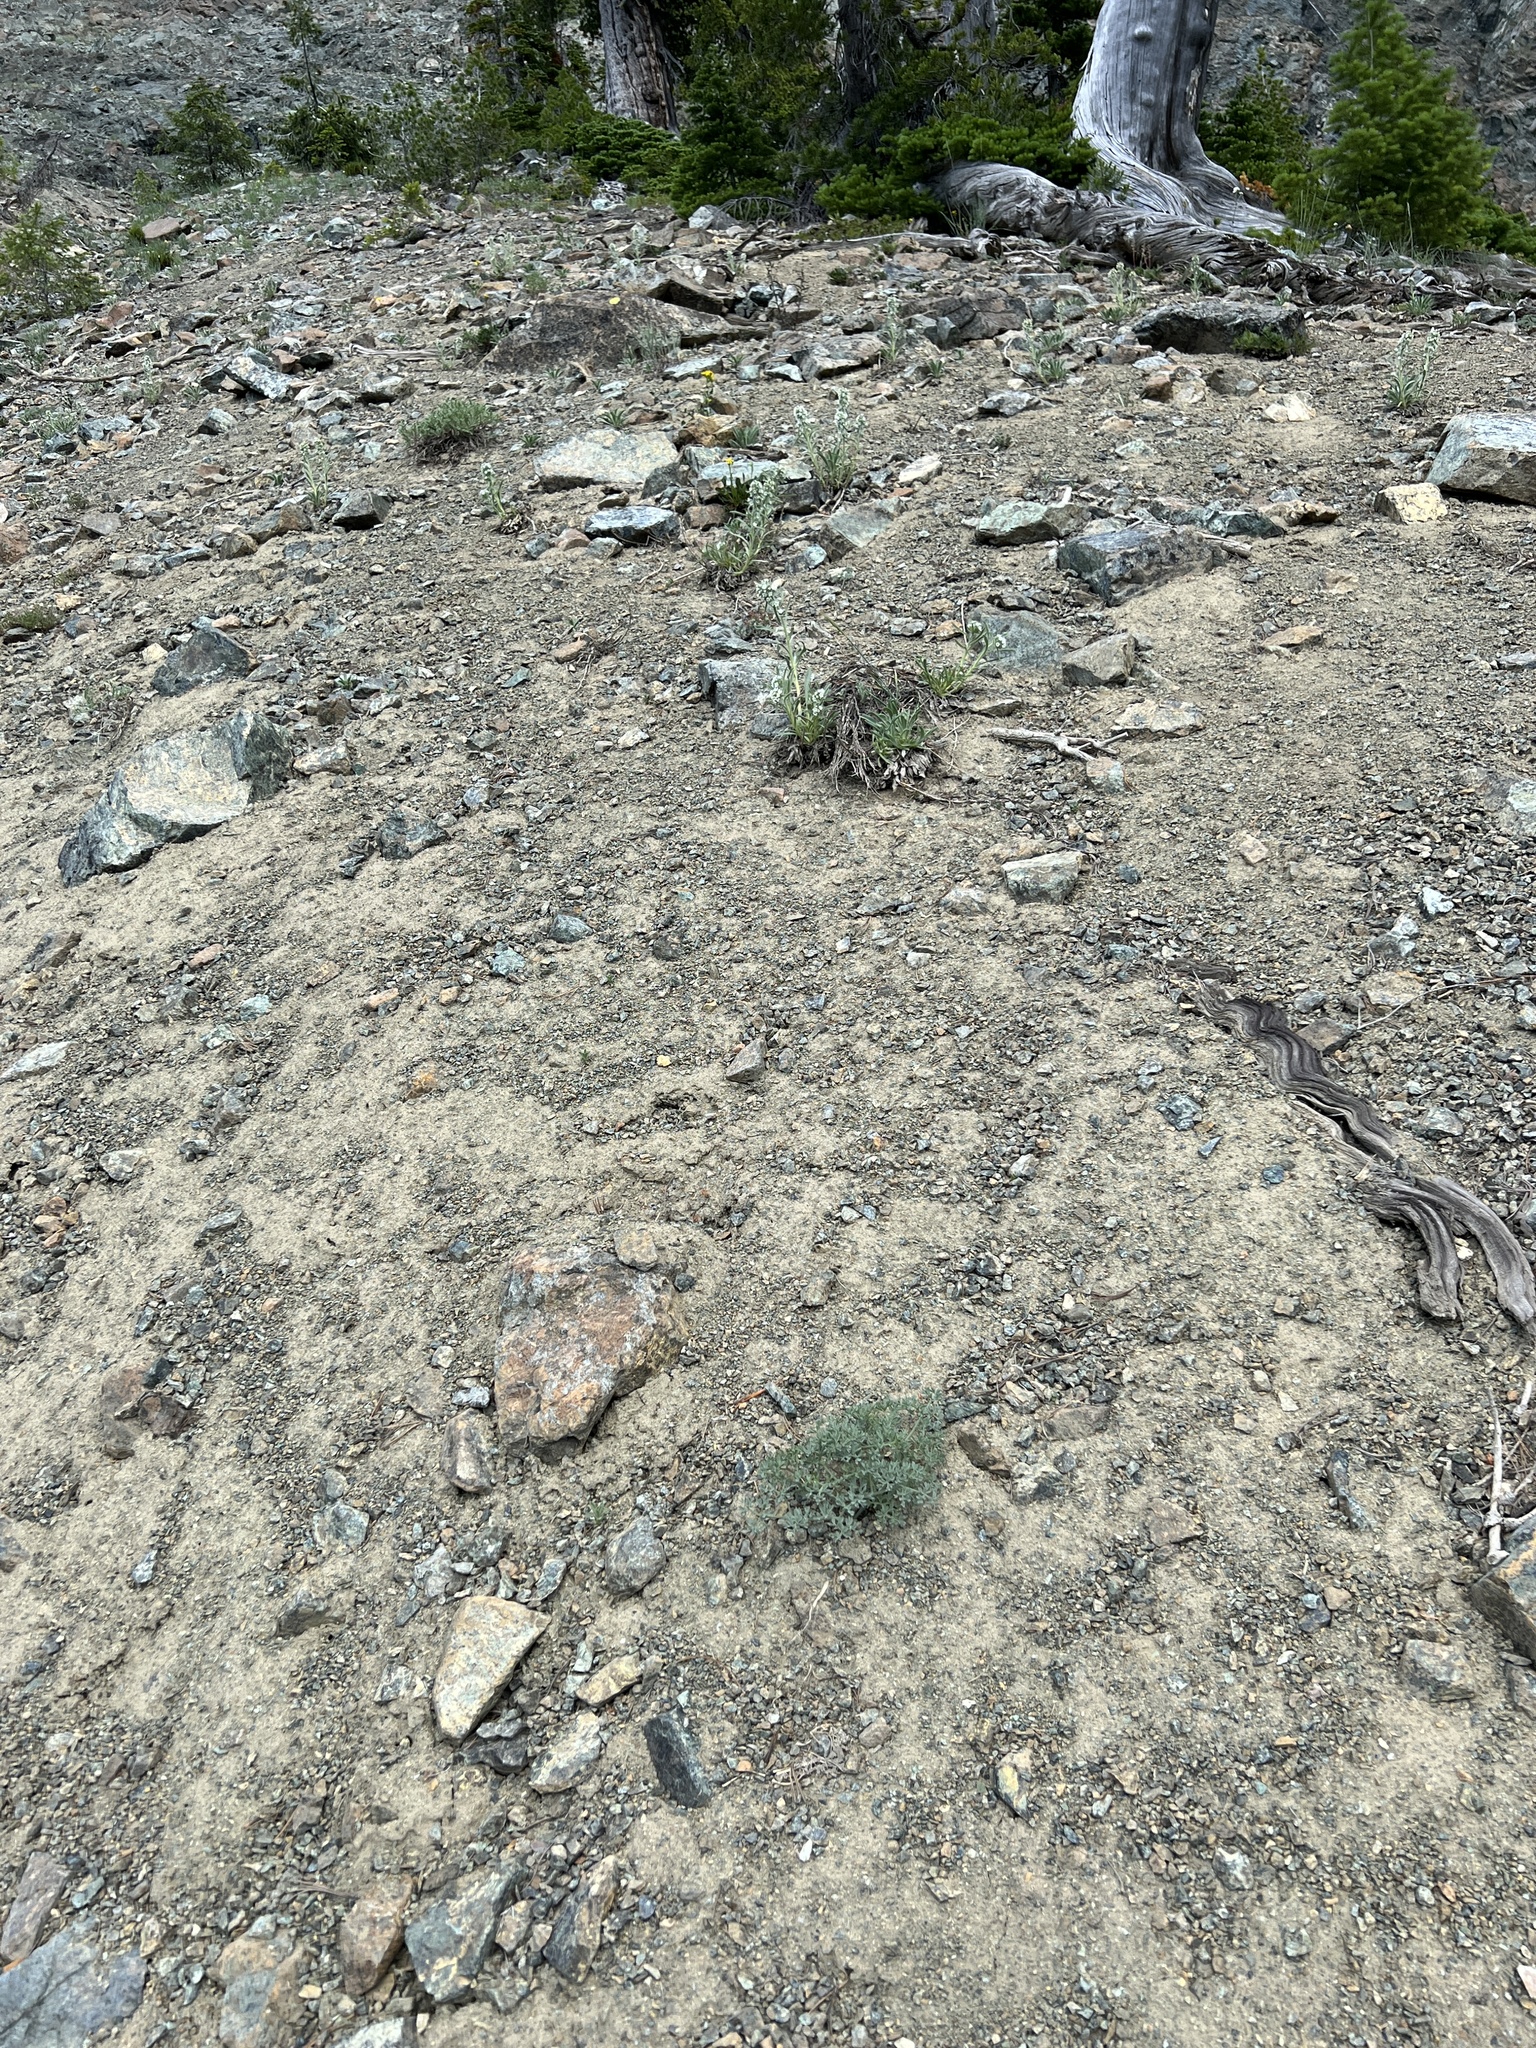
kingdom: Plantae
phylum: Tracheophyta
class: Magnoliopsida
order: Apiales
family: Apiaceae
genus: Lomatium
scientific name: Lomatium cuspidatum
